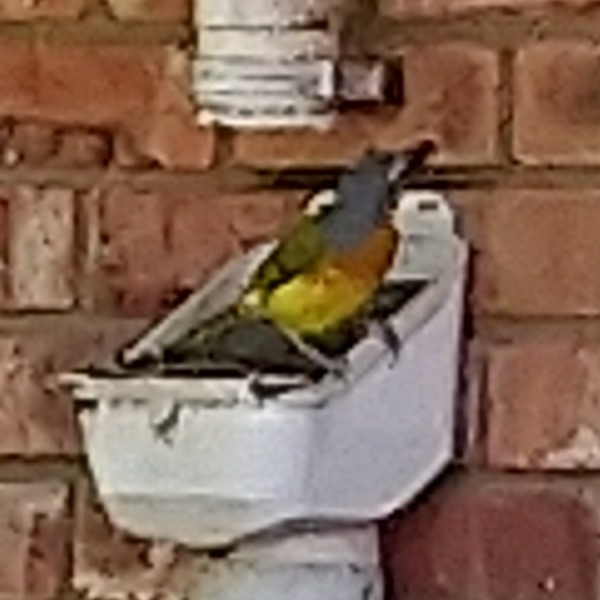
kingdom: Animalia
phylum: Chordata
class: Aves
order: Passeriformes
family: Malaconotidae
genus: Malaconotus
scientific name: Malaconotus blanchoti
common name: Grey-headed bushshrike
